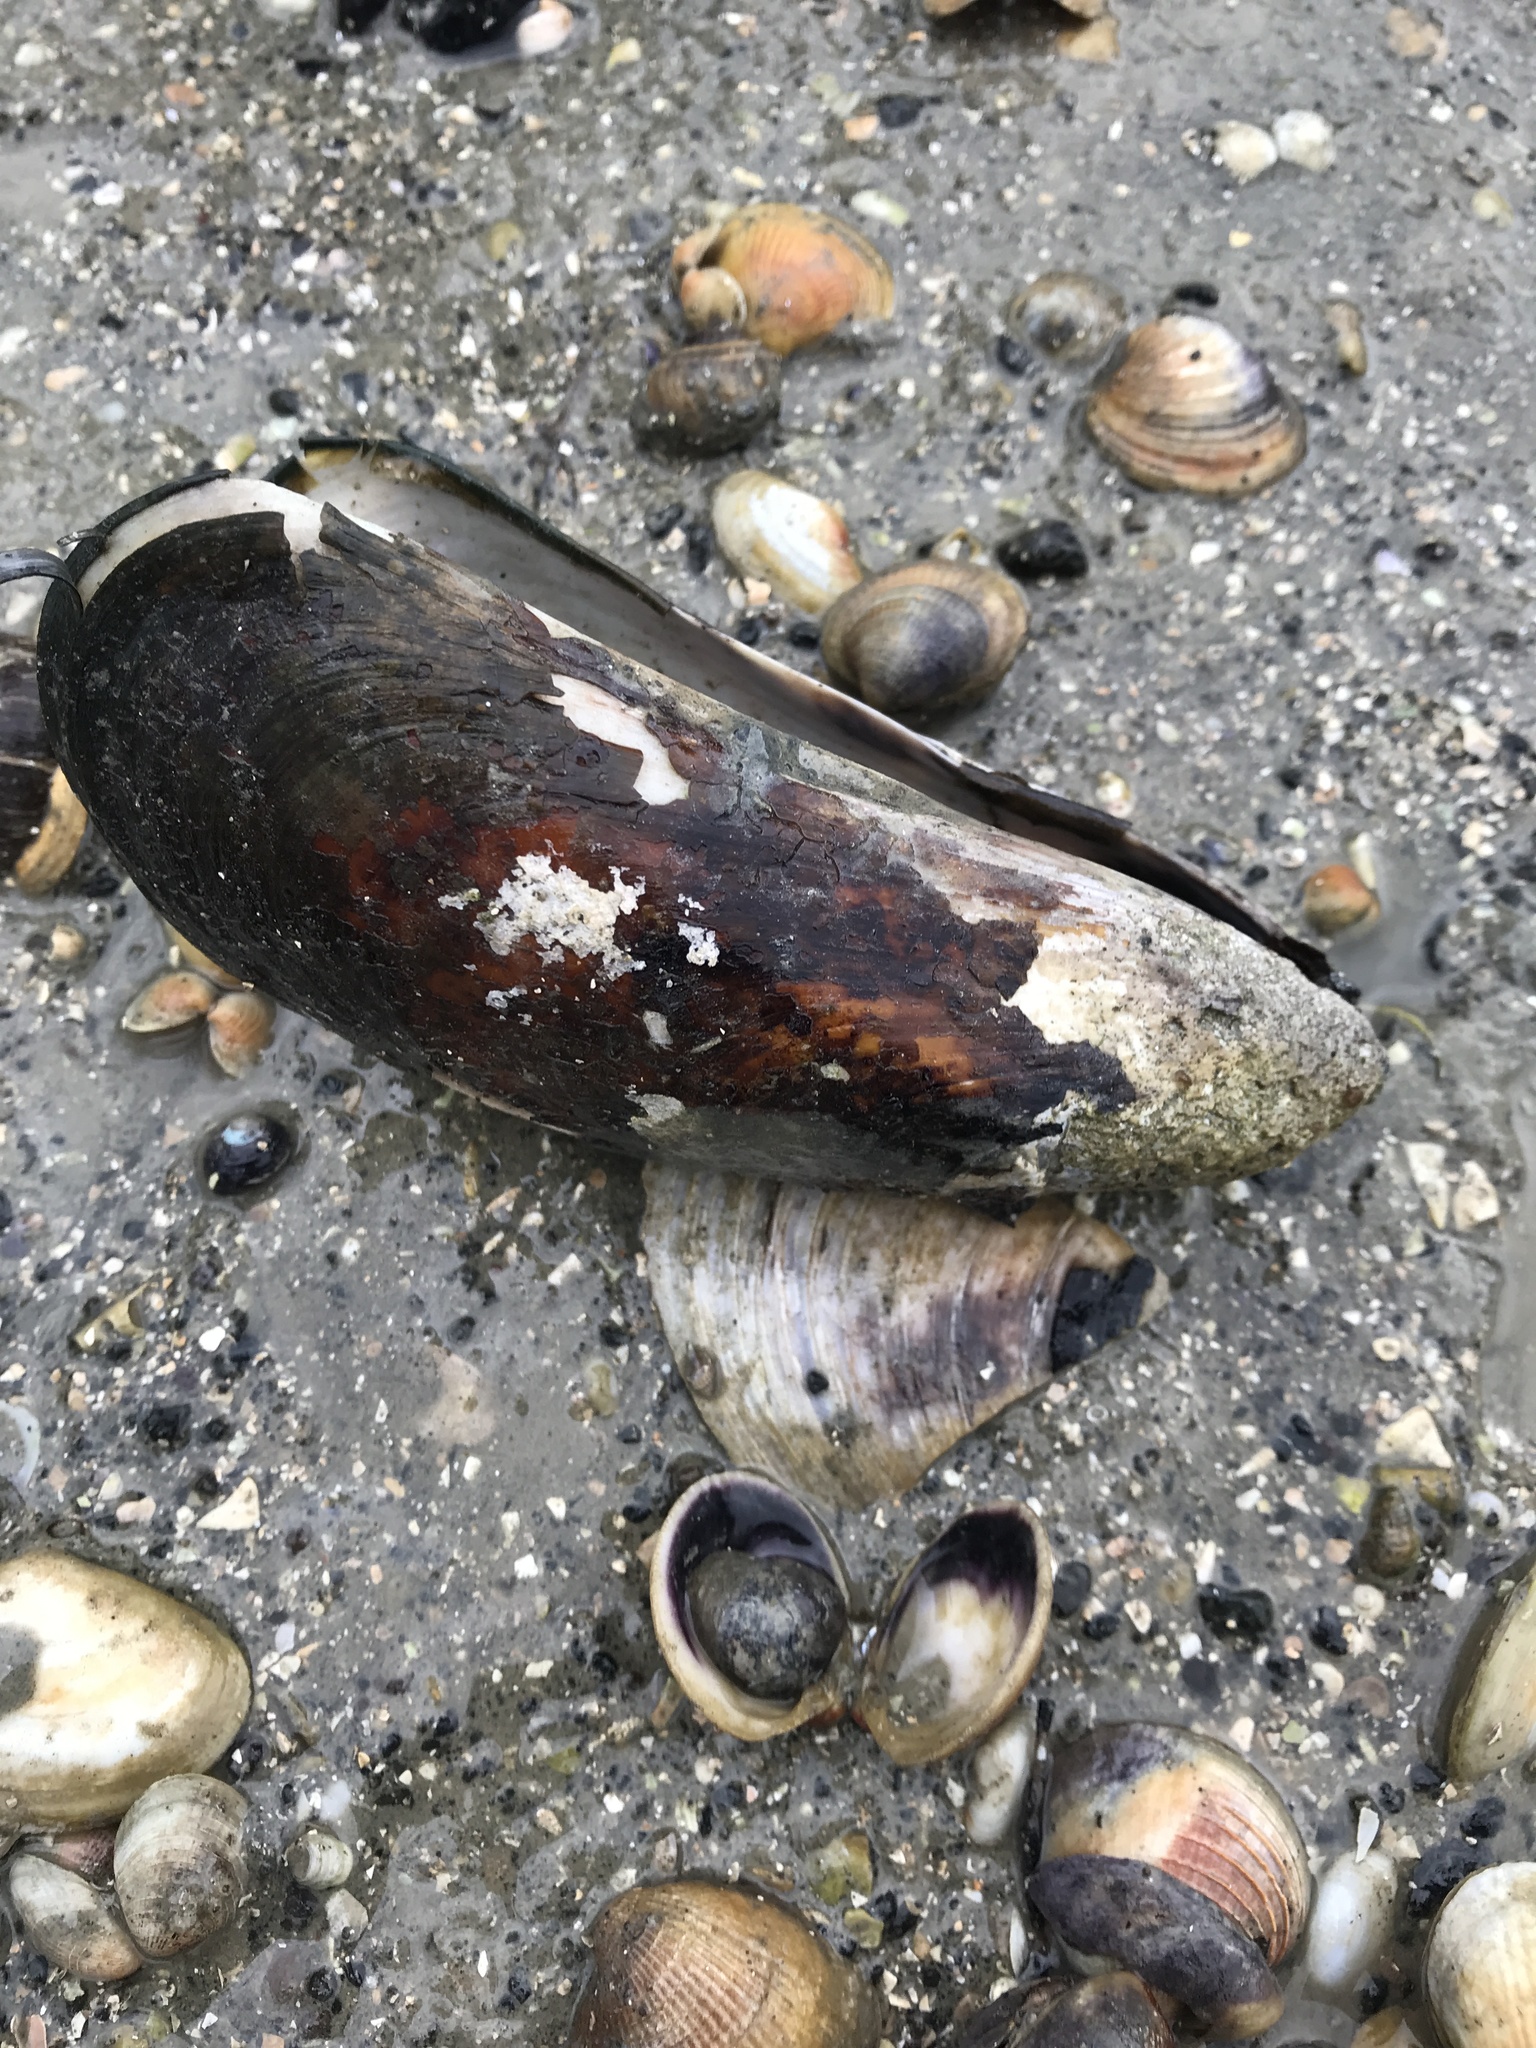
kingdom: Animalia
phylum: Mollusca
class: Bivalvia
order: Mytilida
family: Mytilidae
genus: Perna
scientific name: Perna canaliculus
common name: New zealand greenshelltm
